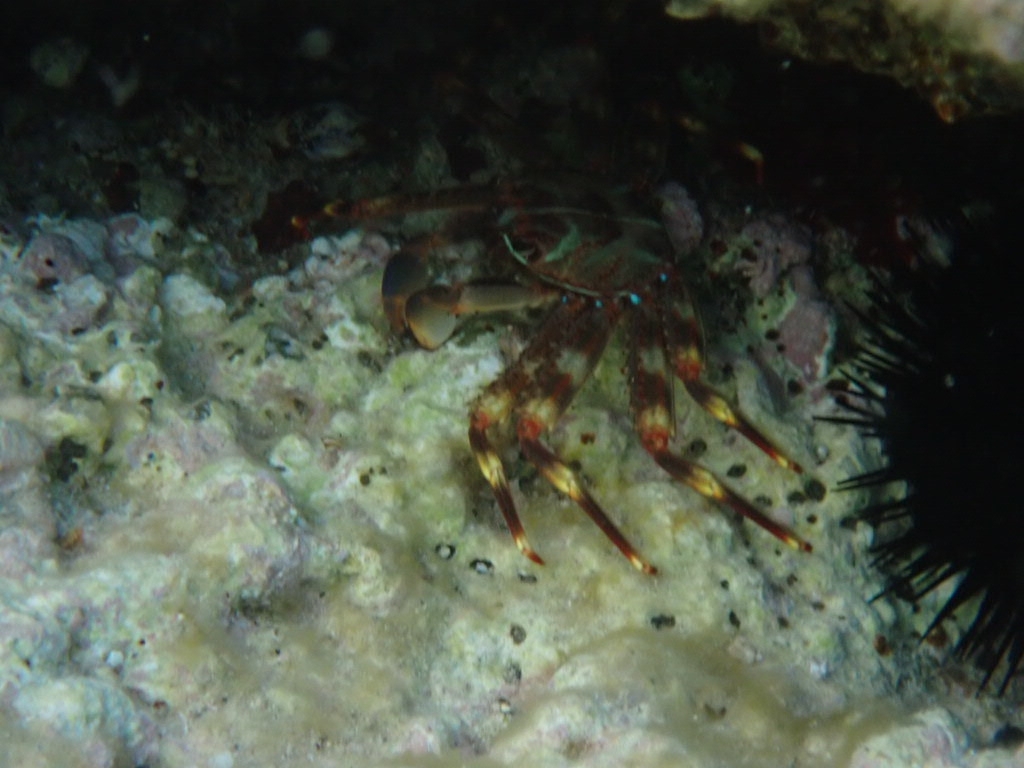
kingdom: Animalia
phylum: Arthropoda
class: Malacostraca
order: Decapoda
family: Percnidae
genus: Percnon
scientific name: Percnon gibbesi
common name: Nimble spray crab
